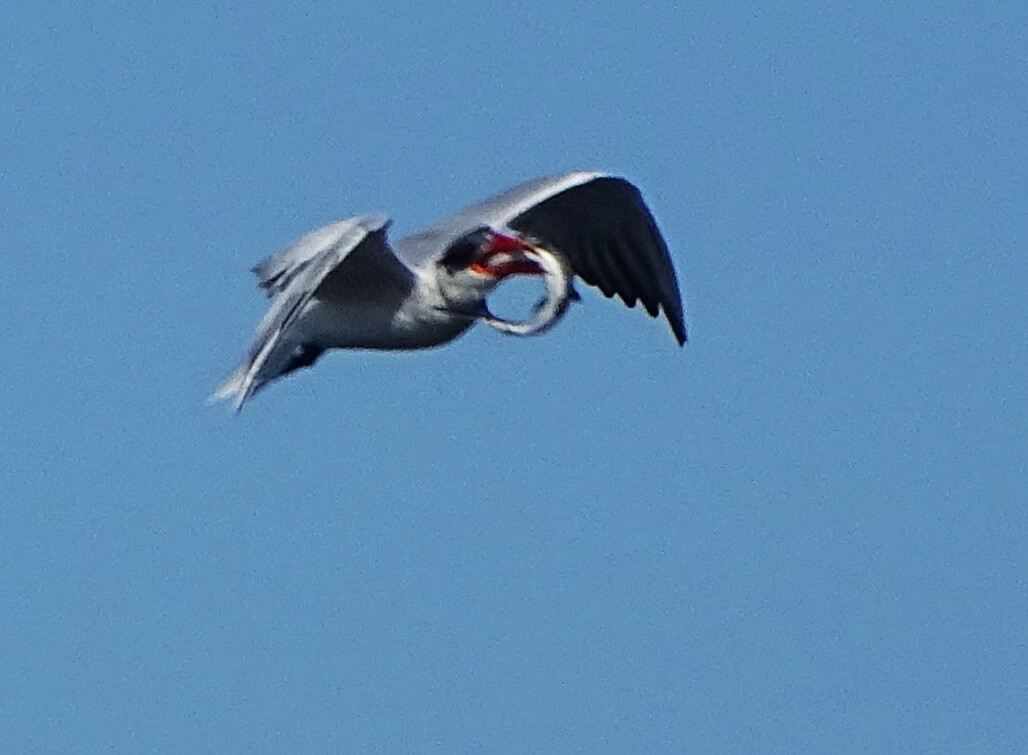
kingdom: Animalia
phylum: Chordata
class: Aves
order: Charadriiformes
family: Laridae
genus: Hydroprogne
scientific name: Hydroprogne caspia
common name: Caspian tern
